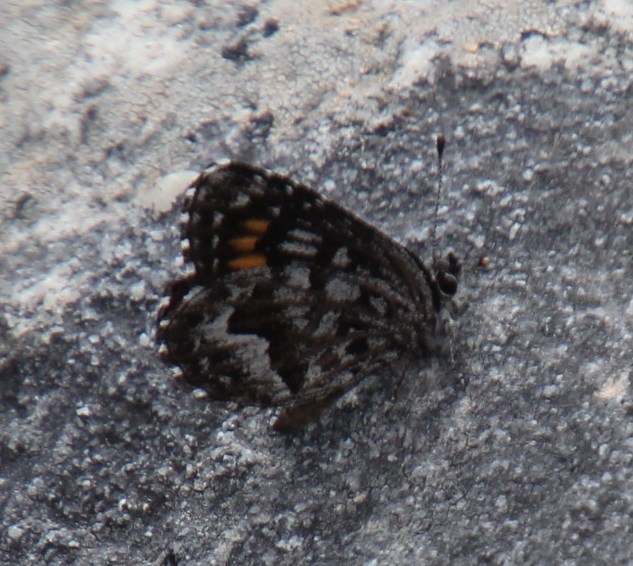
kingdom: Animalia
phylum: Arthropoda
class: Insecta
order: Lepidoptera
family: Lycaenidae
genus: Durbaniopsis
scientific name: Durbaniopsis saga
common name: Boland rocksitter
